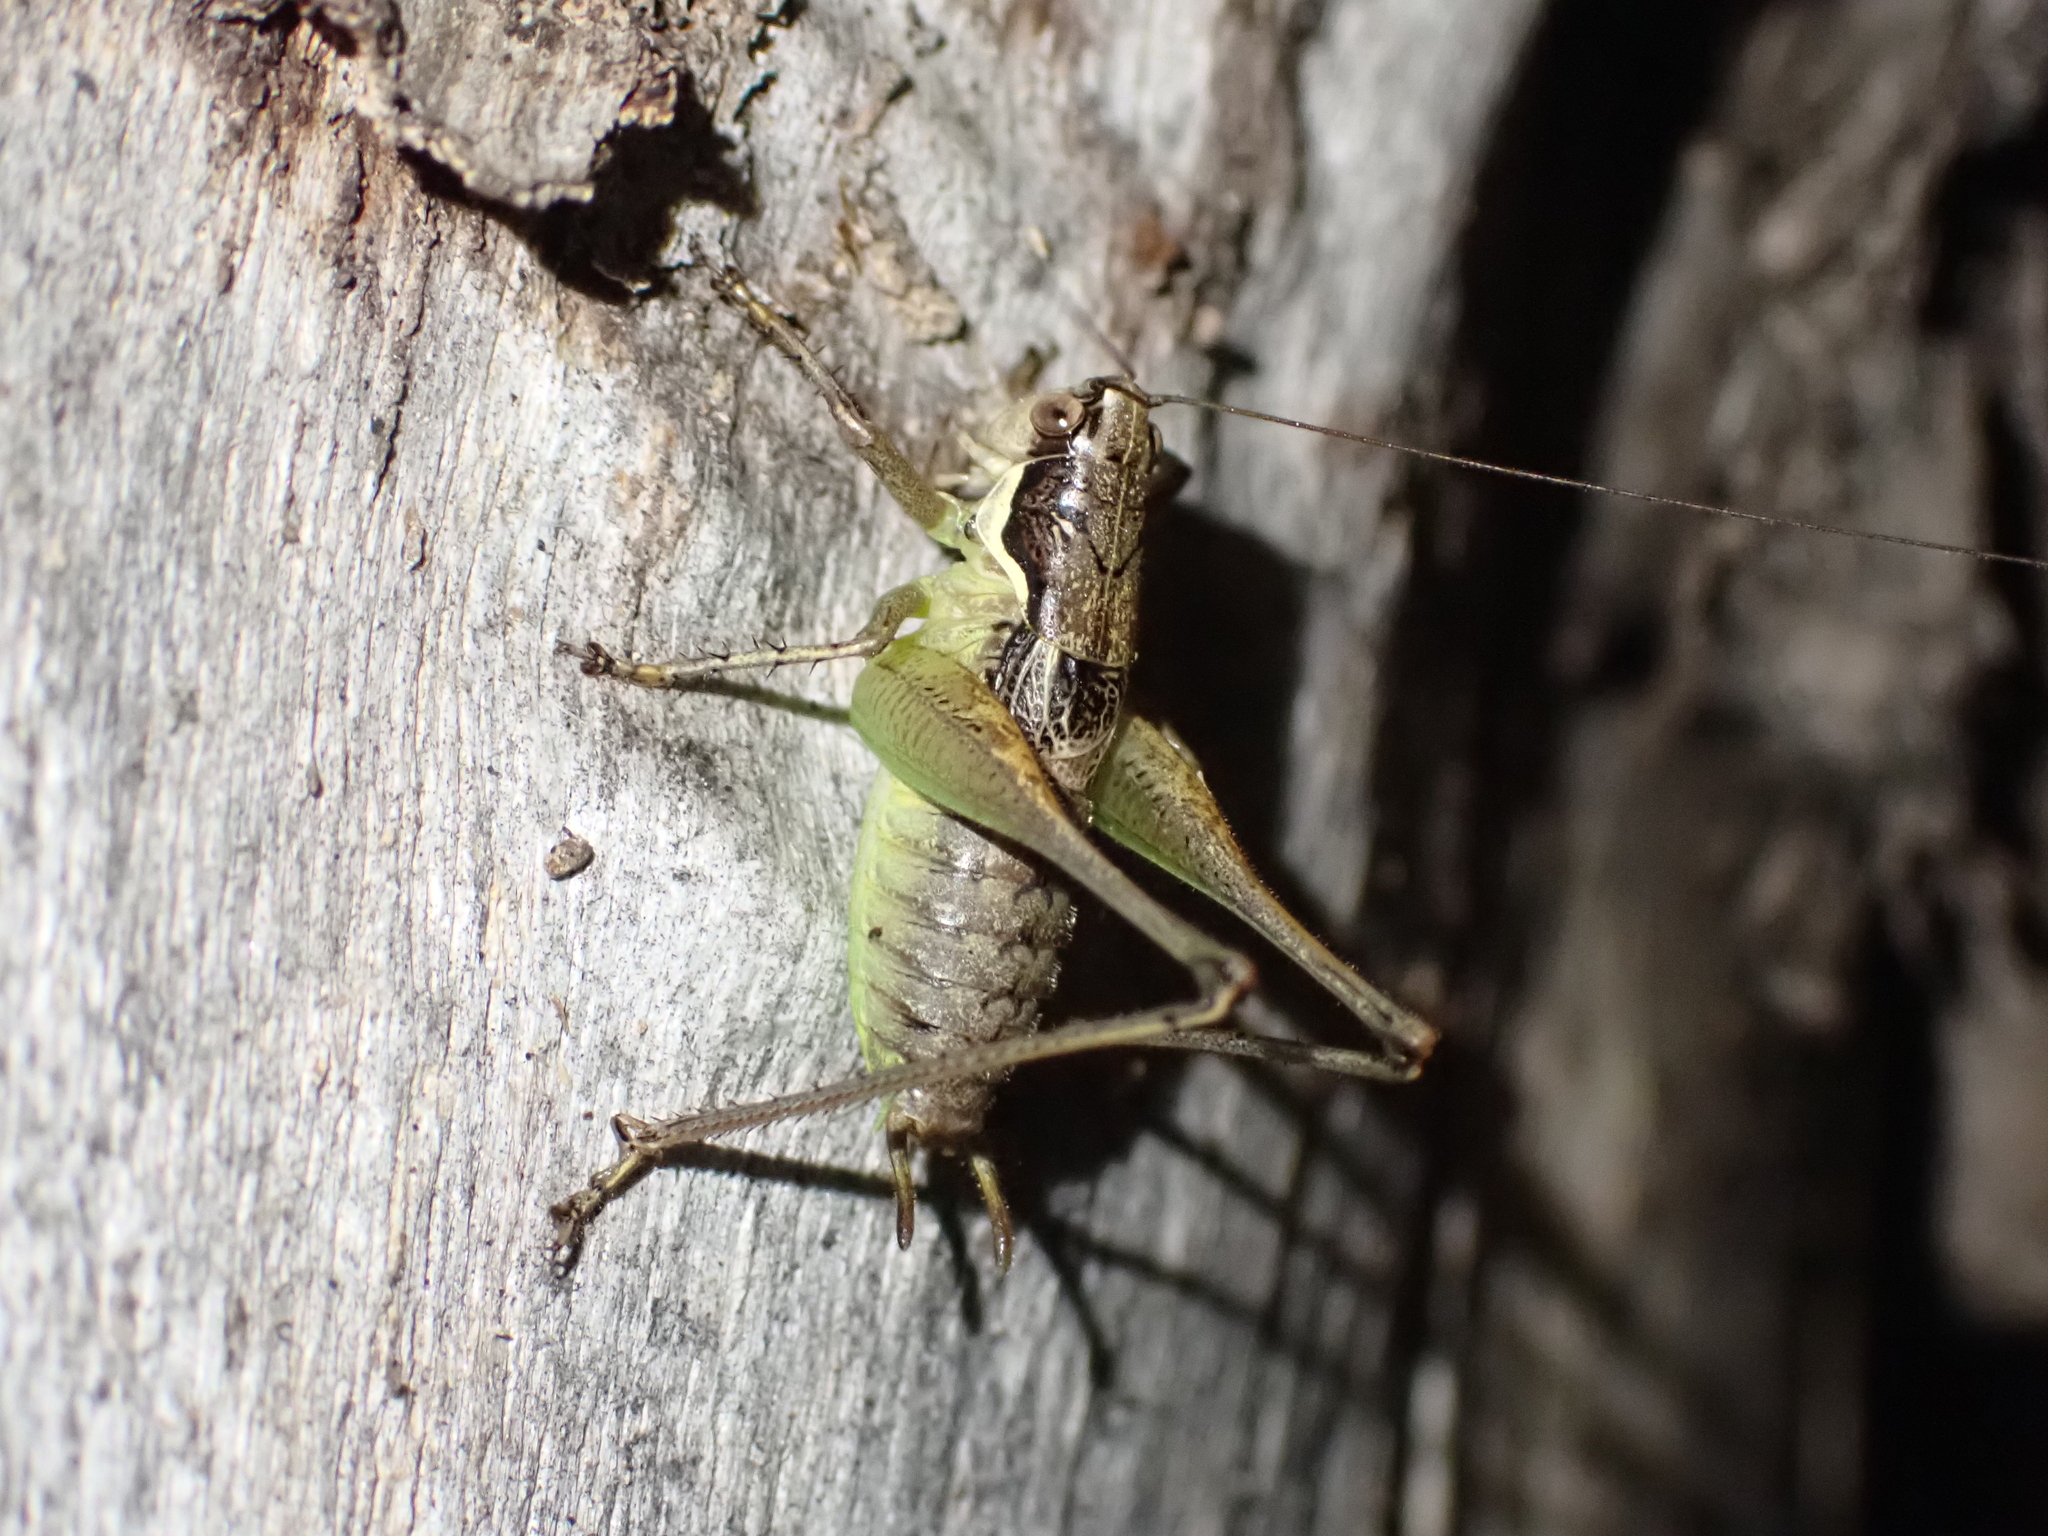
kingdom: Animalia
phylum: Arthropoda
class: Insecta
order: Orthoptera
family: Tettigoniidae
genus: Pachytrachis
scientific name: Pachytrachis gracilis
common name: Graceful bush-cricket
